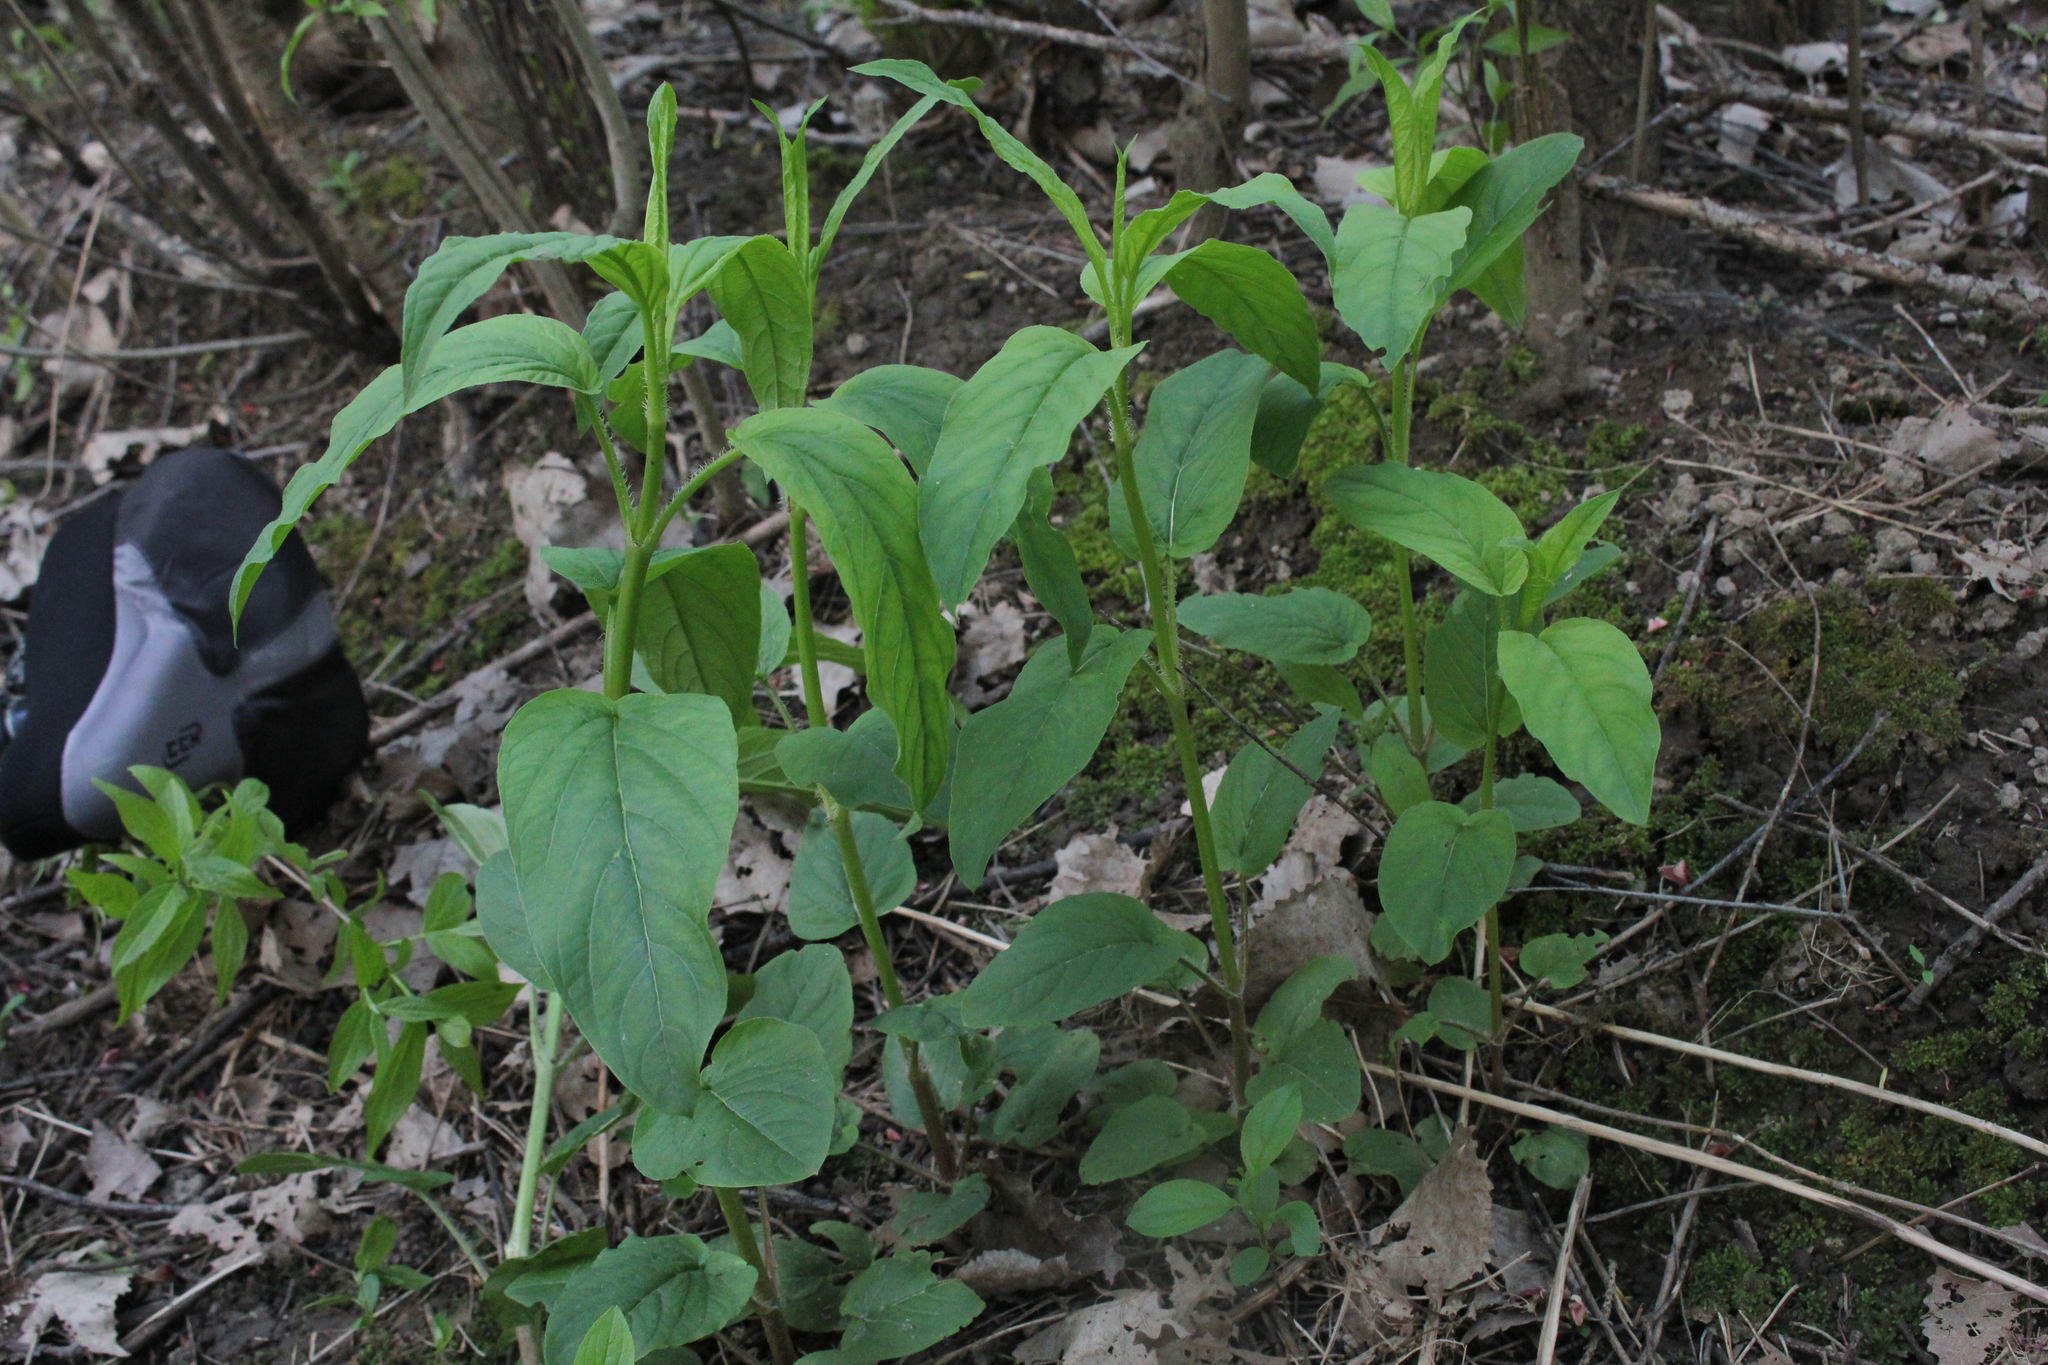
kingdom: Plantae
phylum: Tracheophyta
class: Magnoliopsida
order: Ericales
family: Primulaceae
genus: Lysimachia
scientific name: Lysimachia ciliata
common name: Fringed loosestrife
